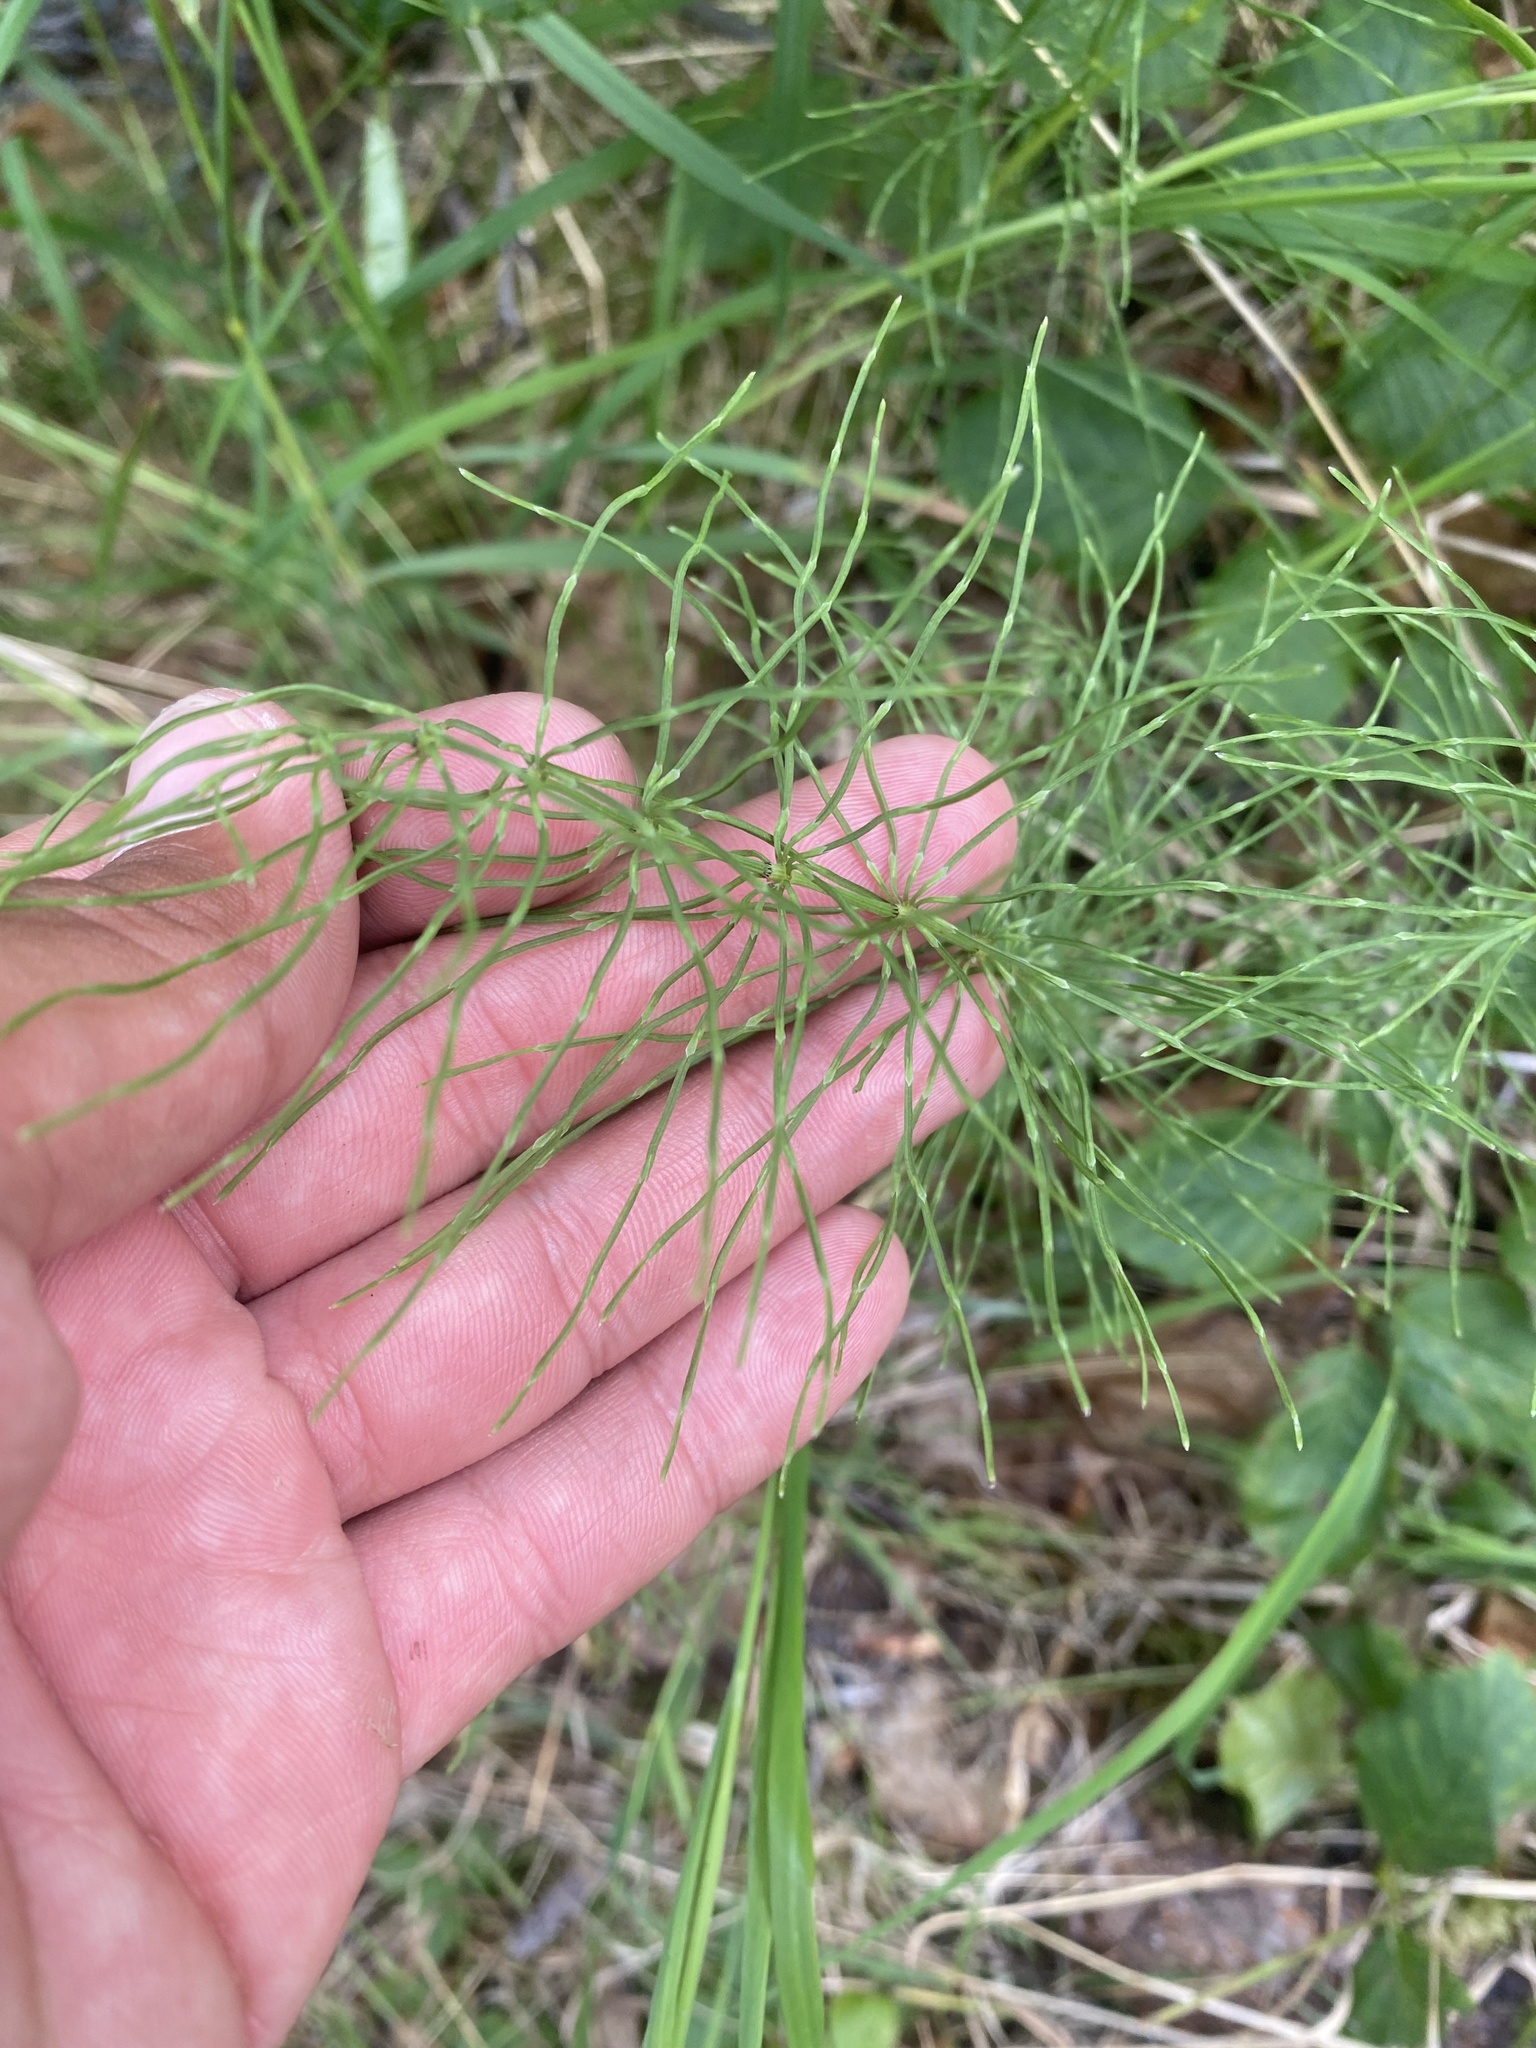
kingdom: Plantae
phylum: Tracheophyta
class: Polypodiopsida
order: Equisetales
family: Equisetaceae
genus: Equisetum
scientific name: Equisetum pratense
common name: Meadow horsetail
